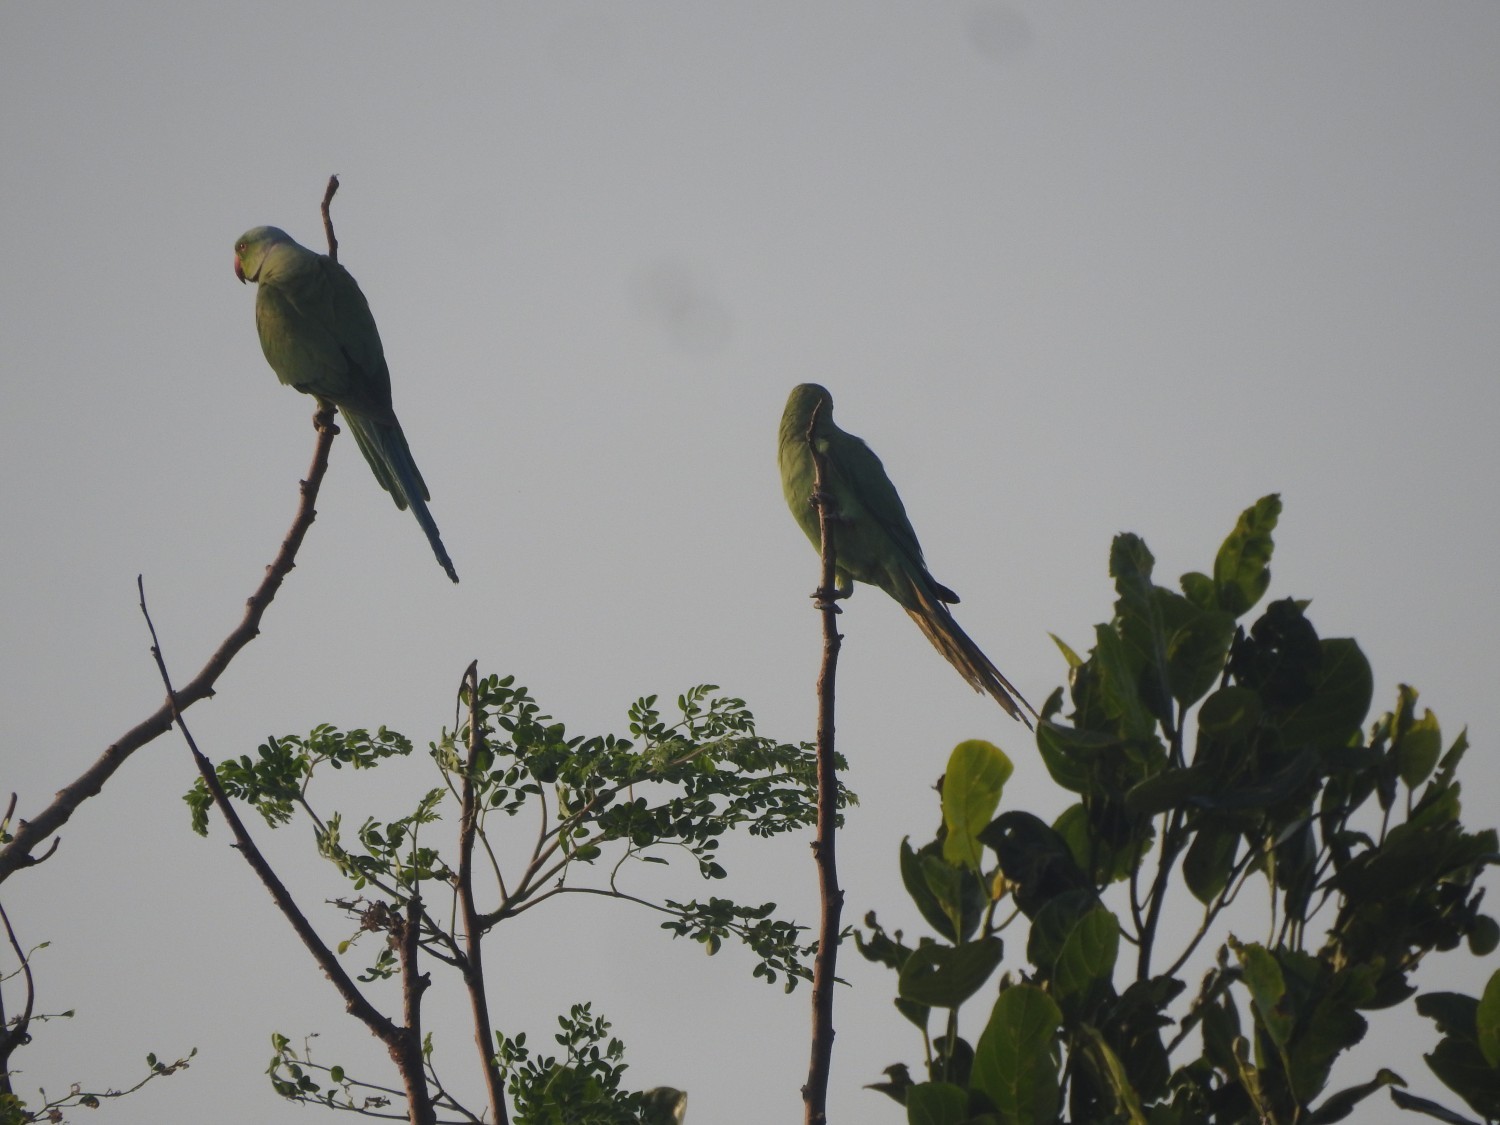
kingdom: Animalia
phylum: Chordata
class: Aves
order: Psittaciformes
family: Psittacidae
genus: Psittacula
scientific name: Psittacula krameri
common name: Rose-ringed parakeet
